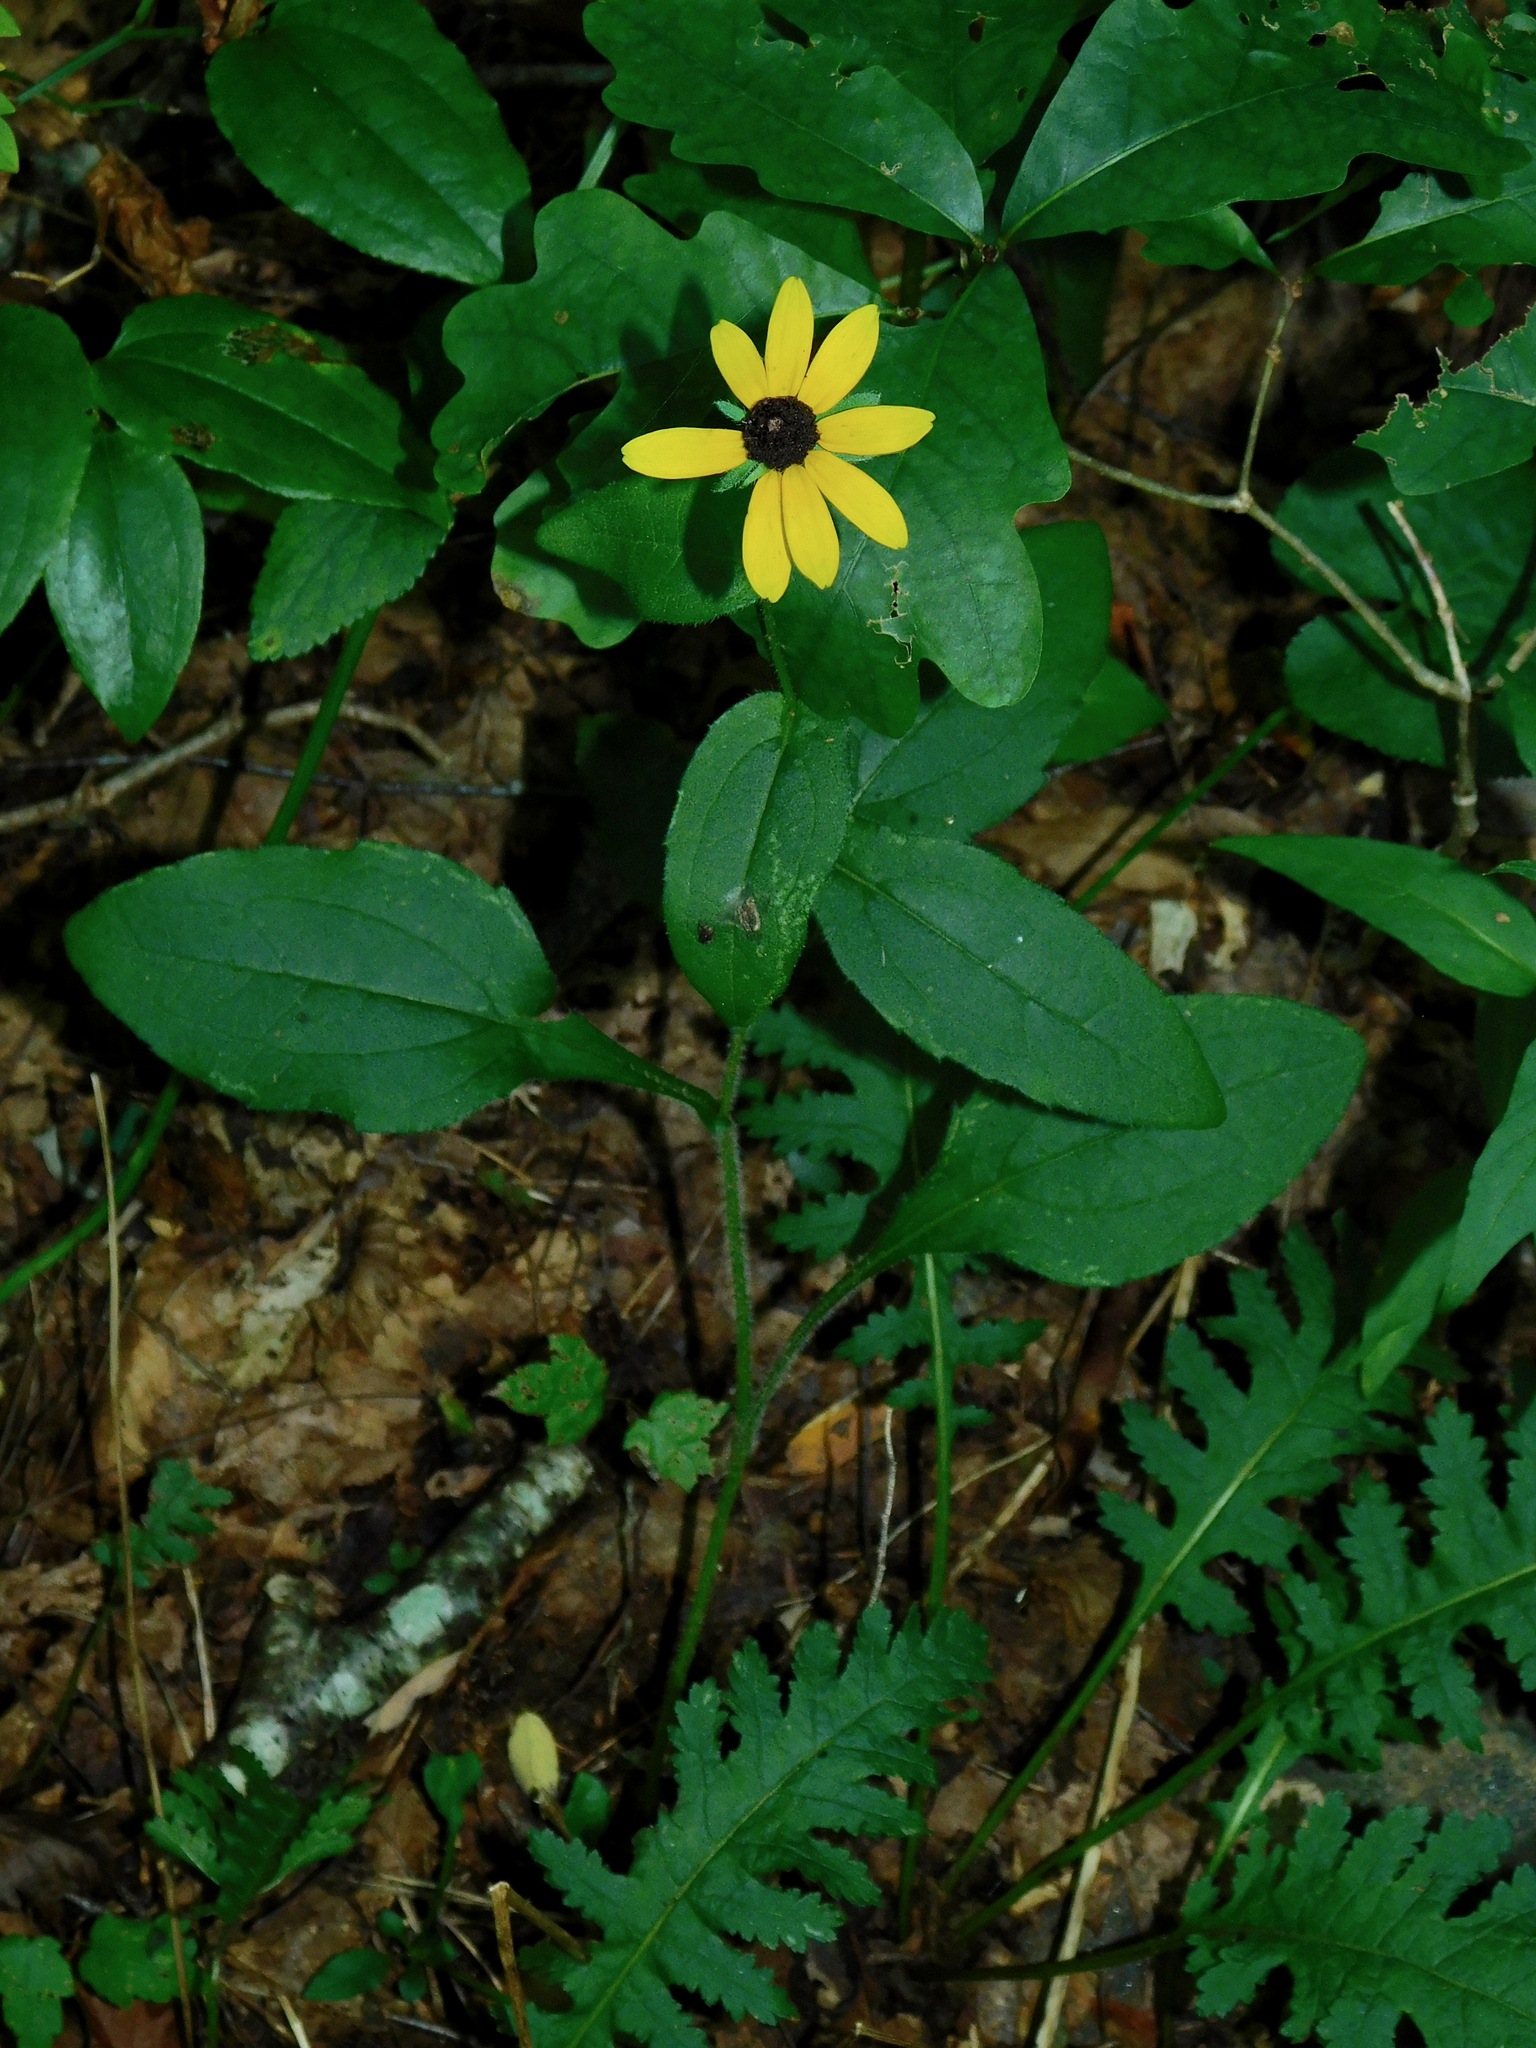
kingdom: Plantae
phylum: Tracheophyta
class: Magnoliopsida
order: Asterales
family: Asteraceae
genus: Rudbeckia
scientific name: Rudbeckia hirta
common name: Black-eyed-susan
